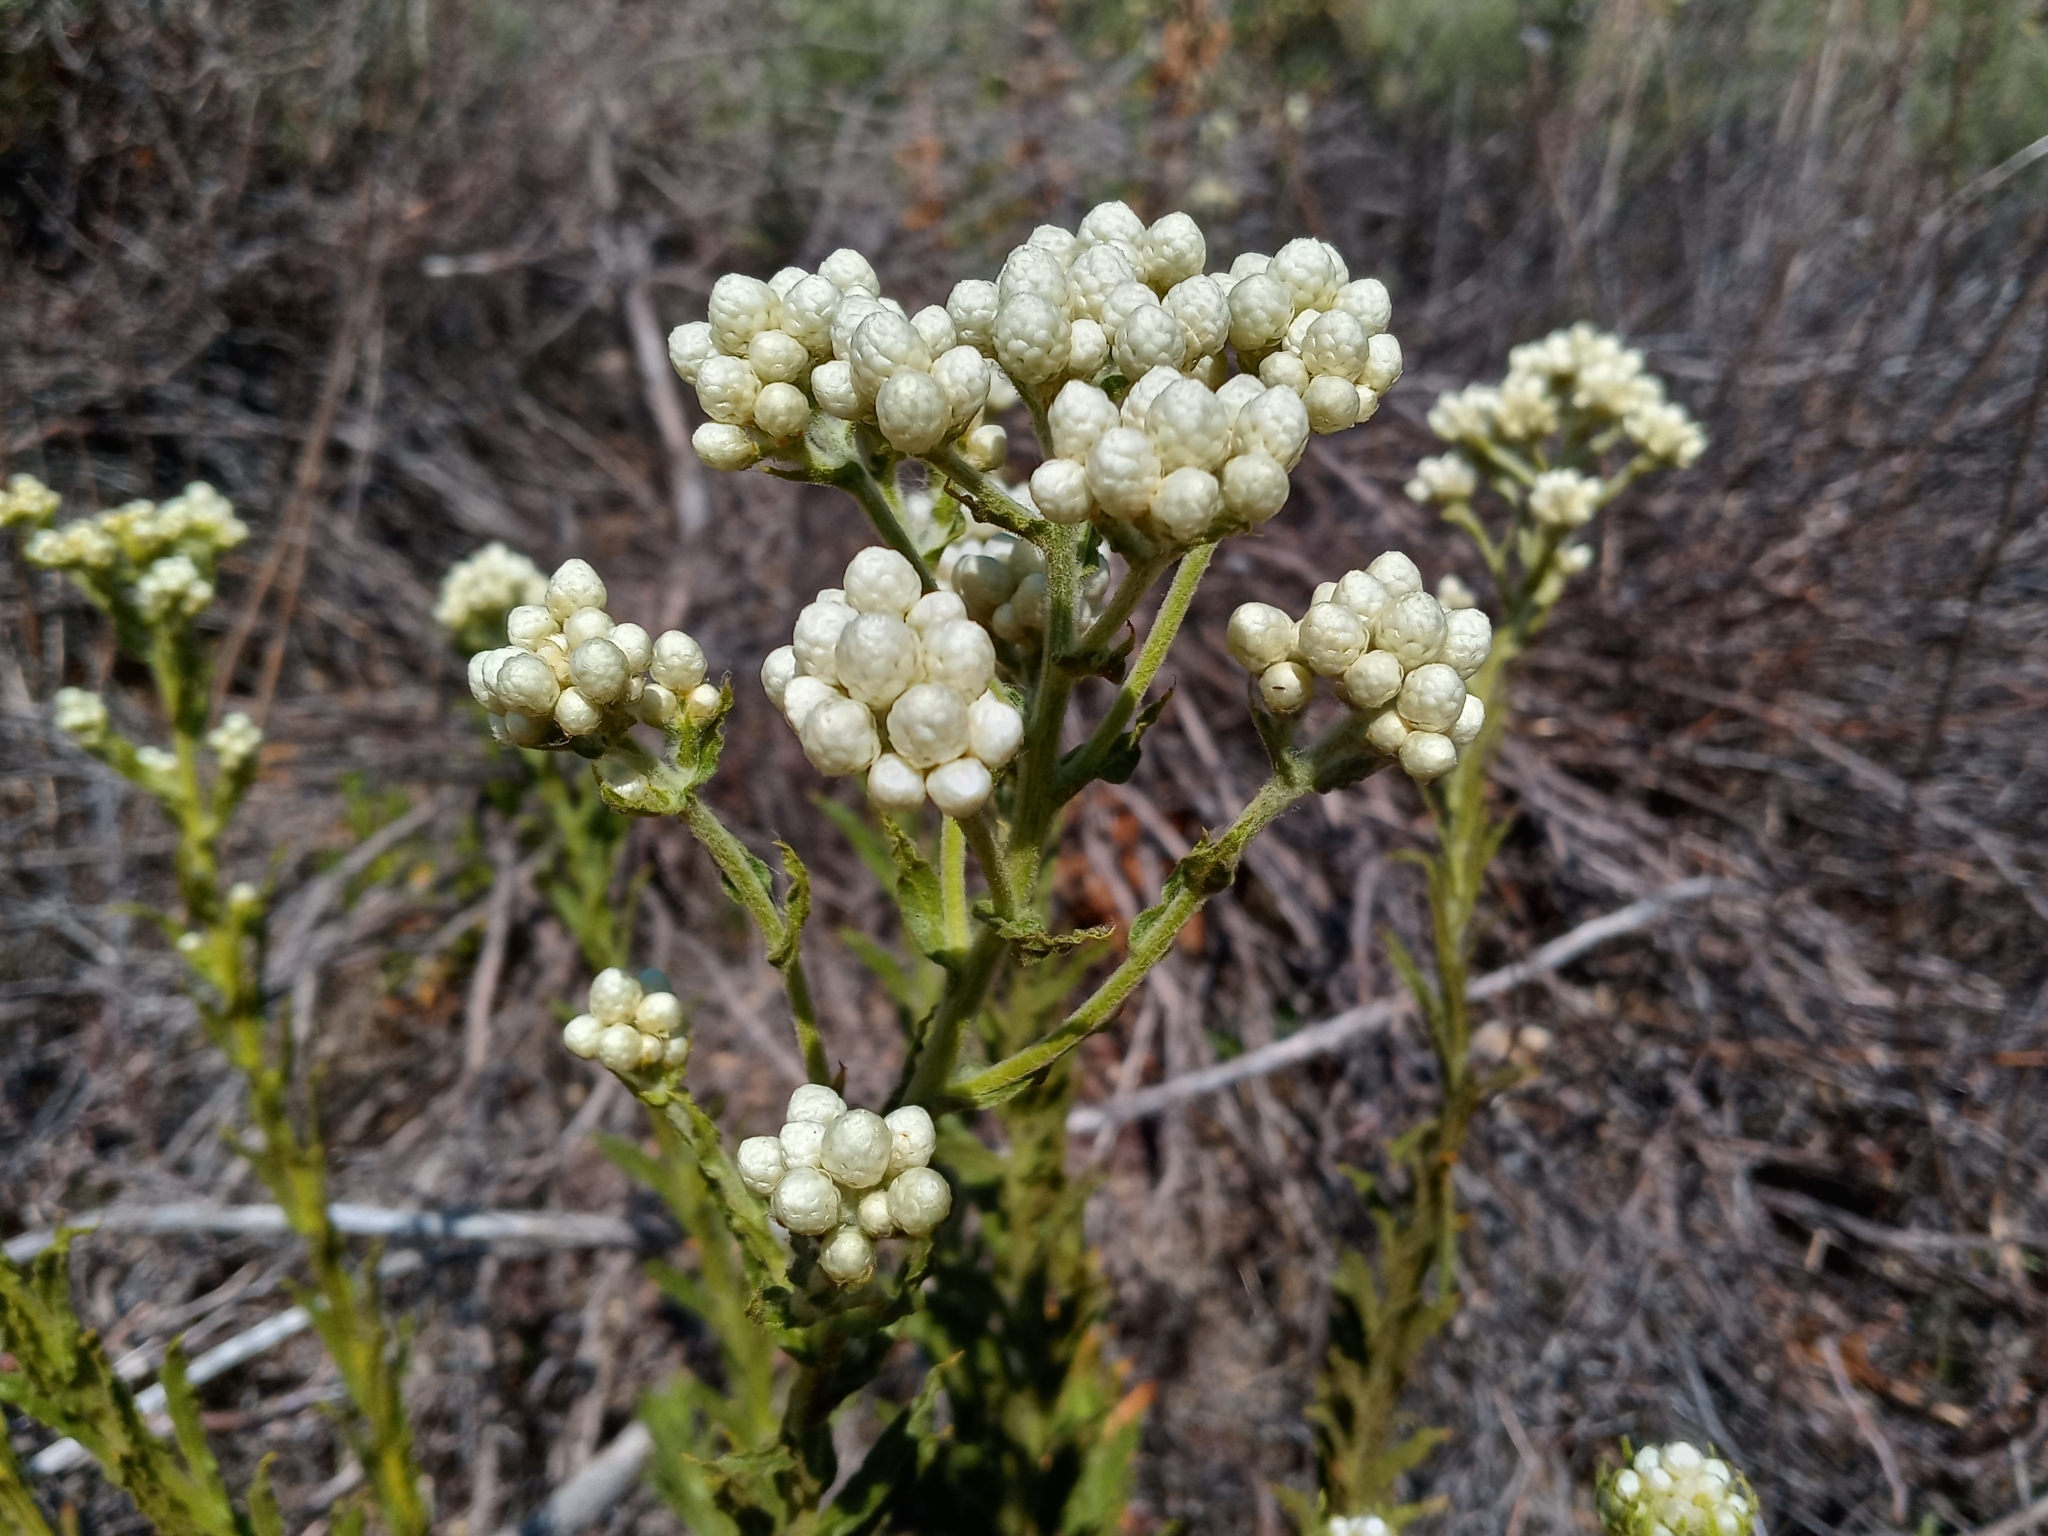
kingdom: Plantae
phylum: Tracheophyta
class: Magnoliopsida
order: Asterales
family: Asteraceae
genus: Pseudognaphalium
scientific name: Pseudognaphalium californicum
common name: California rabbit-tobacco
